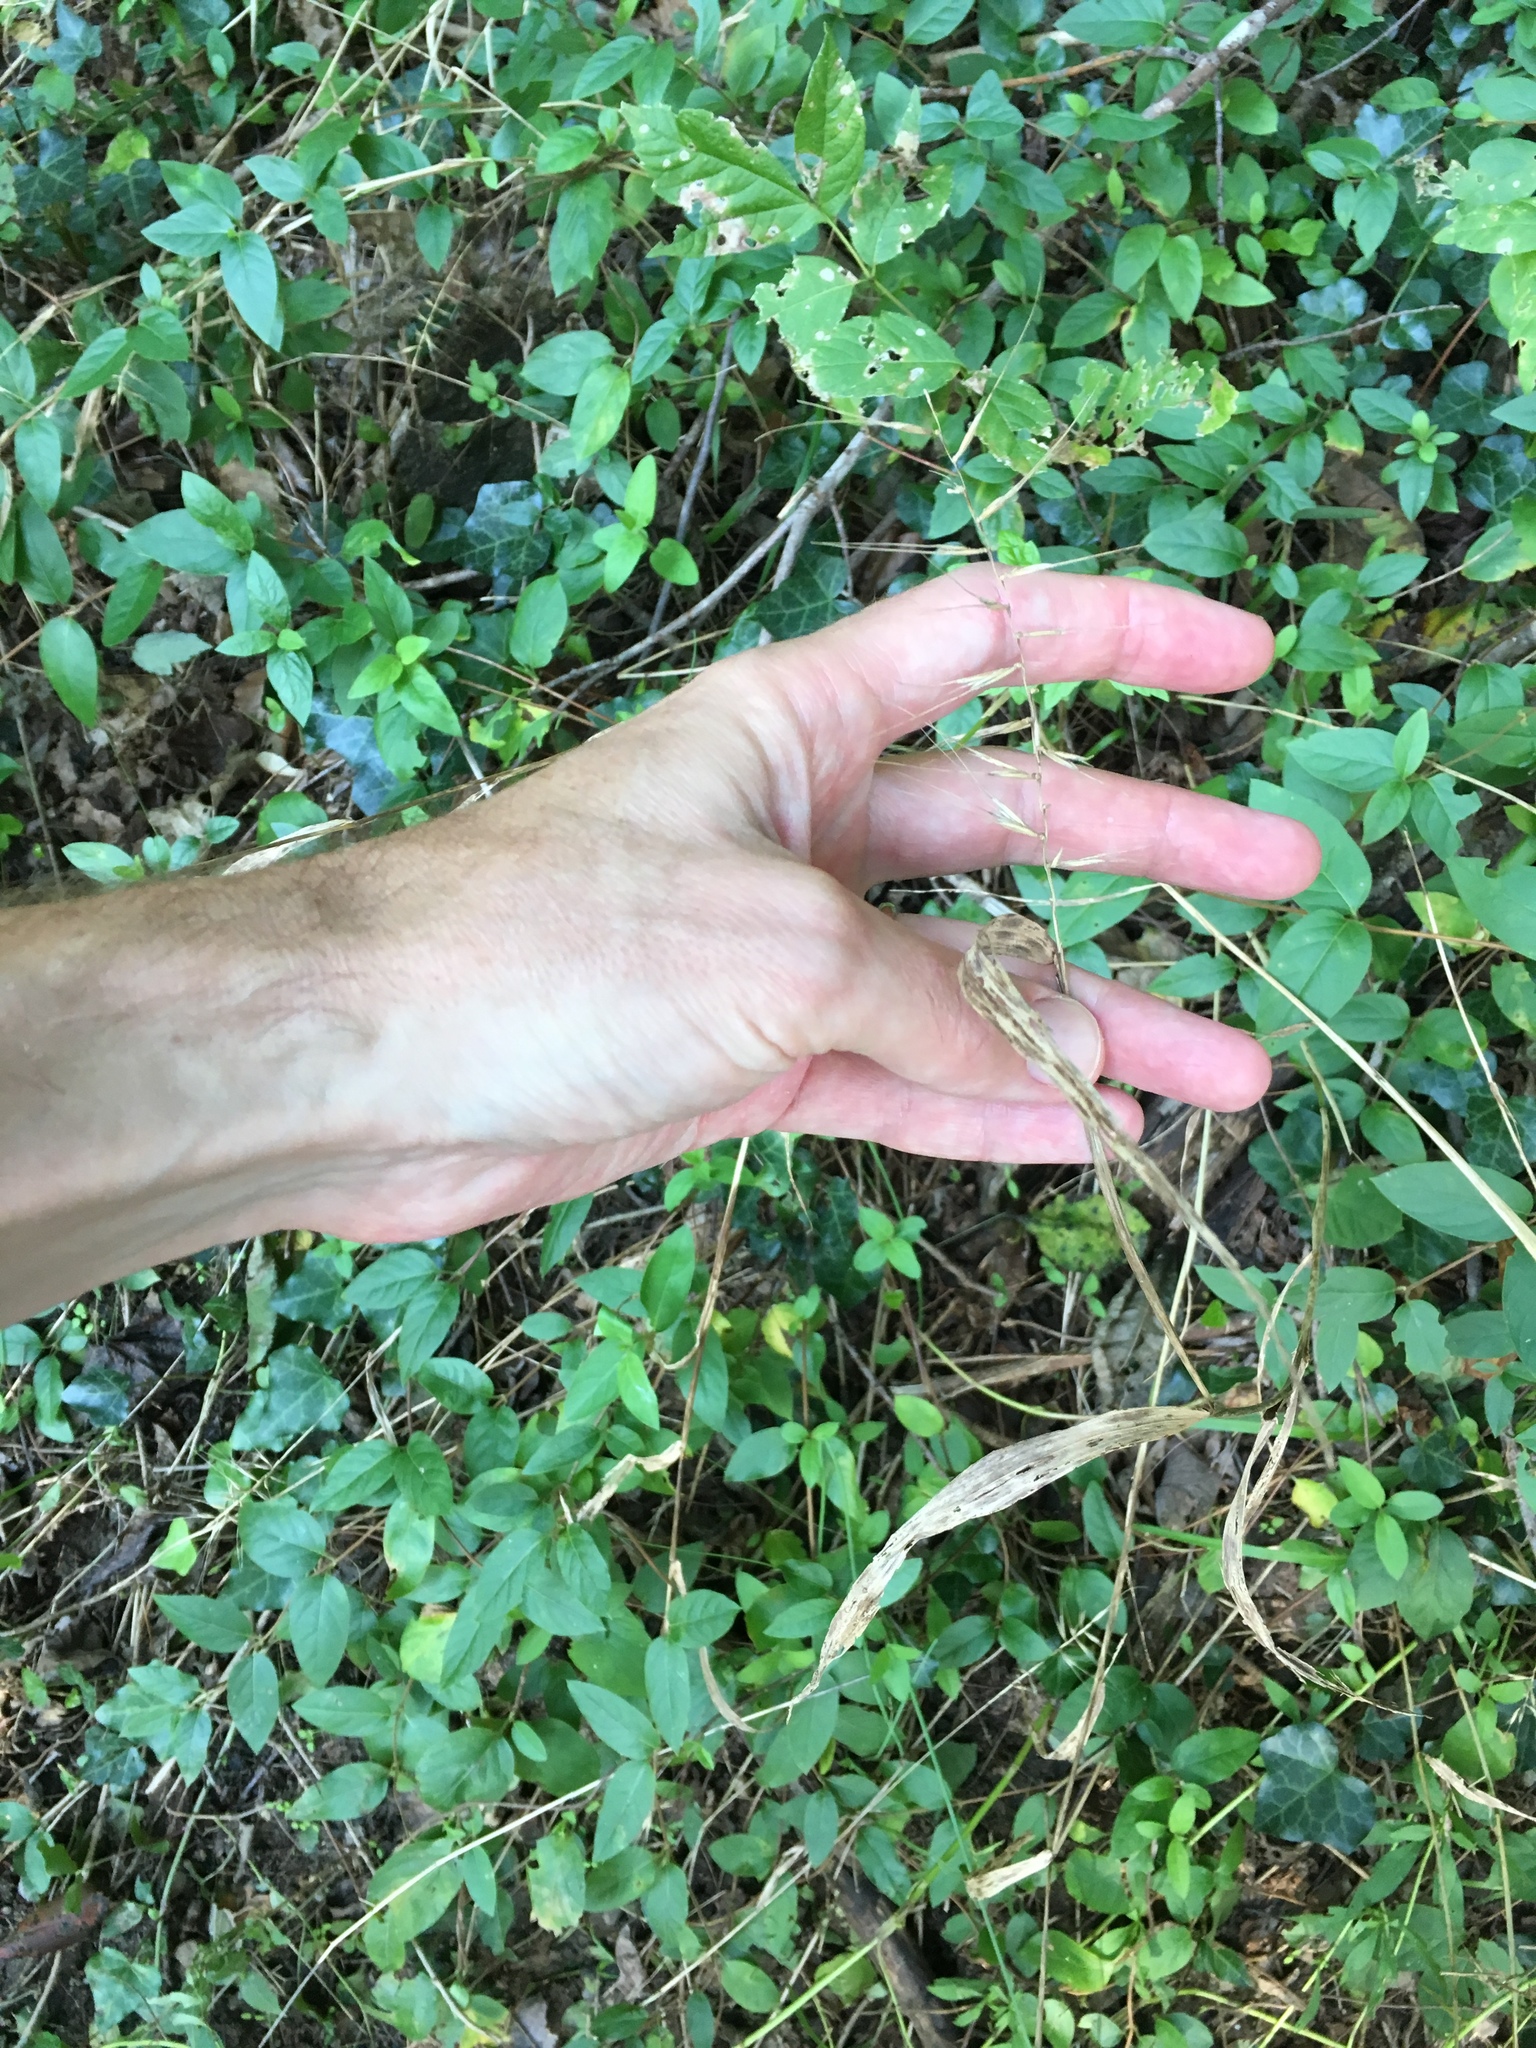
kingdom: Plantae
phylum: Tracheophyta
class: Liliopsida
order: Poales
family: Poaceae
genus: Elymus
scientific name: Elymus hystrix
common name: Bottlebrush grass
